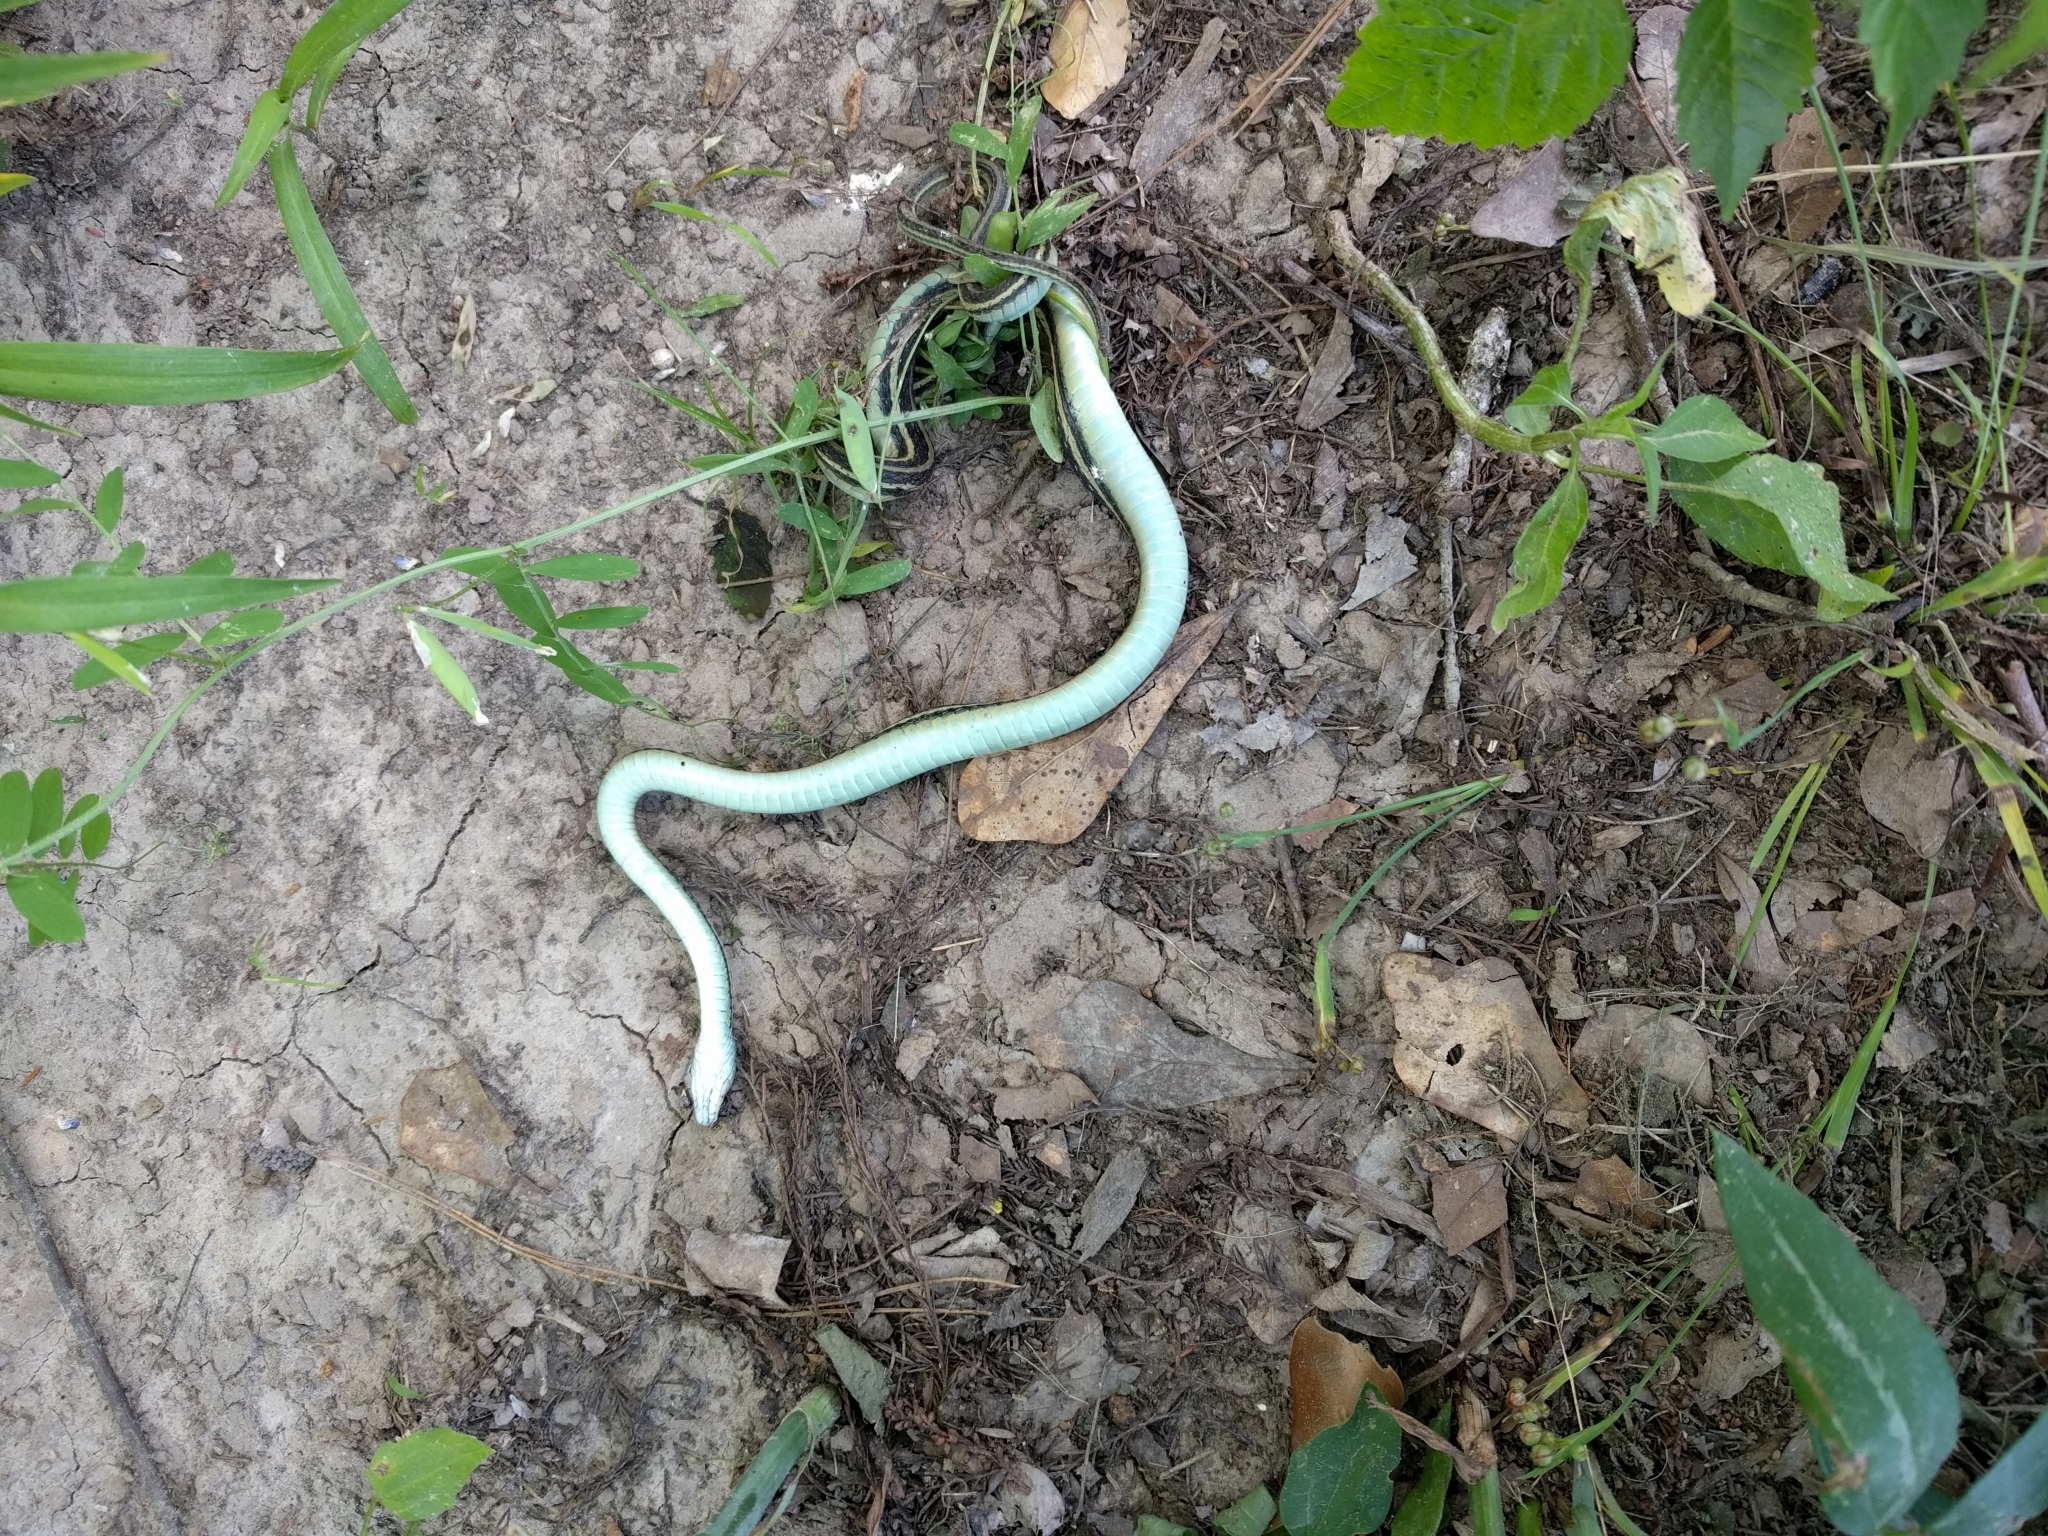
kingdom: Animalia
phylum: Chordata
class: Squamata
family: Colubridae
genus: Thamnophis
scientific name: Thamnophis proximus
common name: Western ribbon snake
